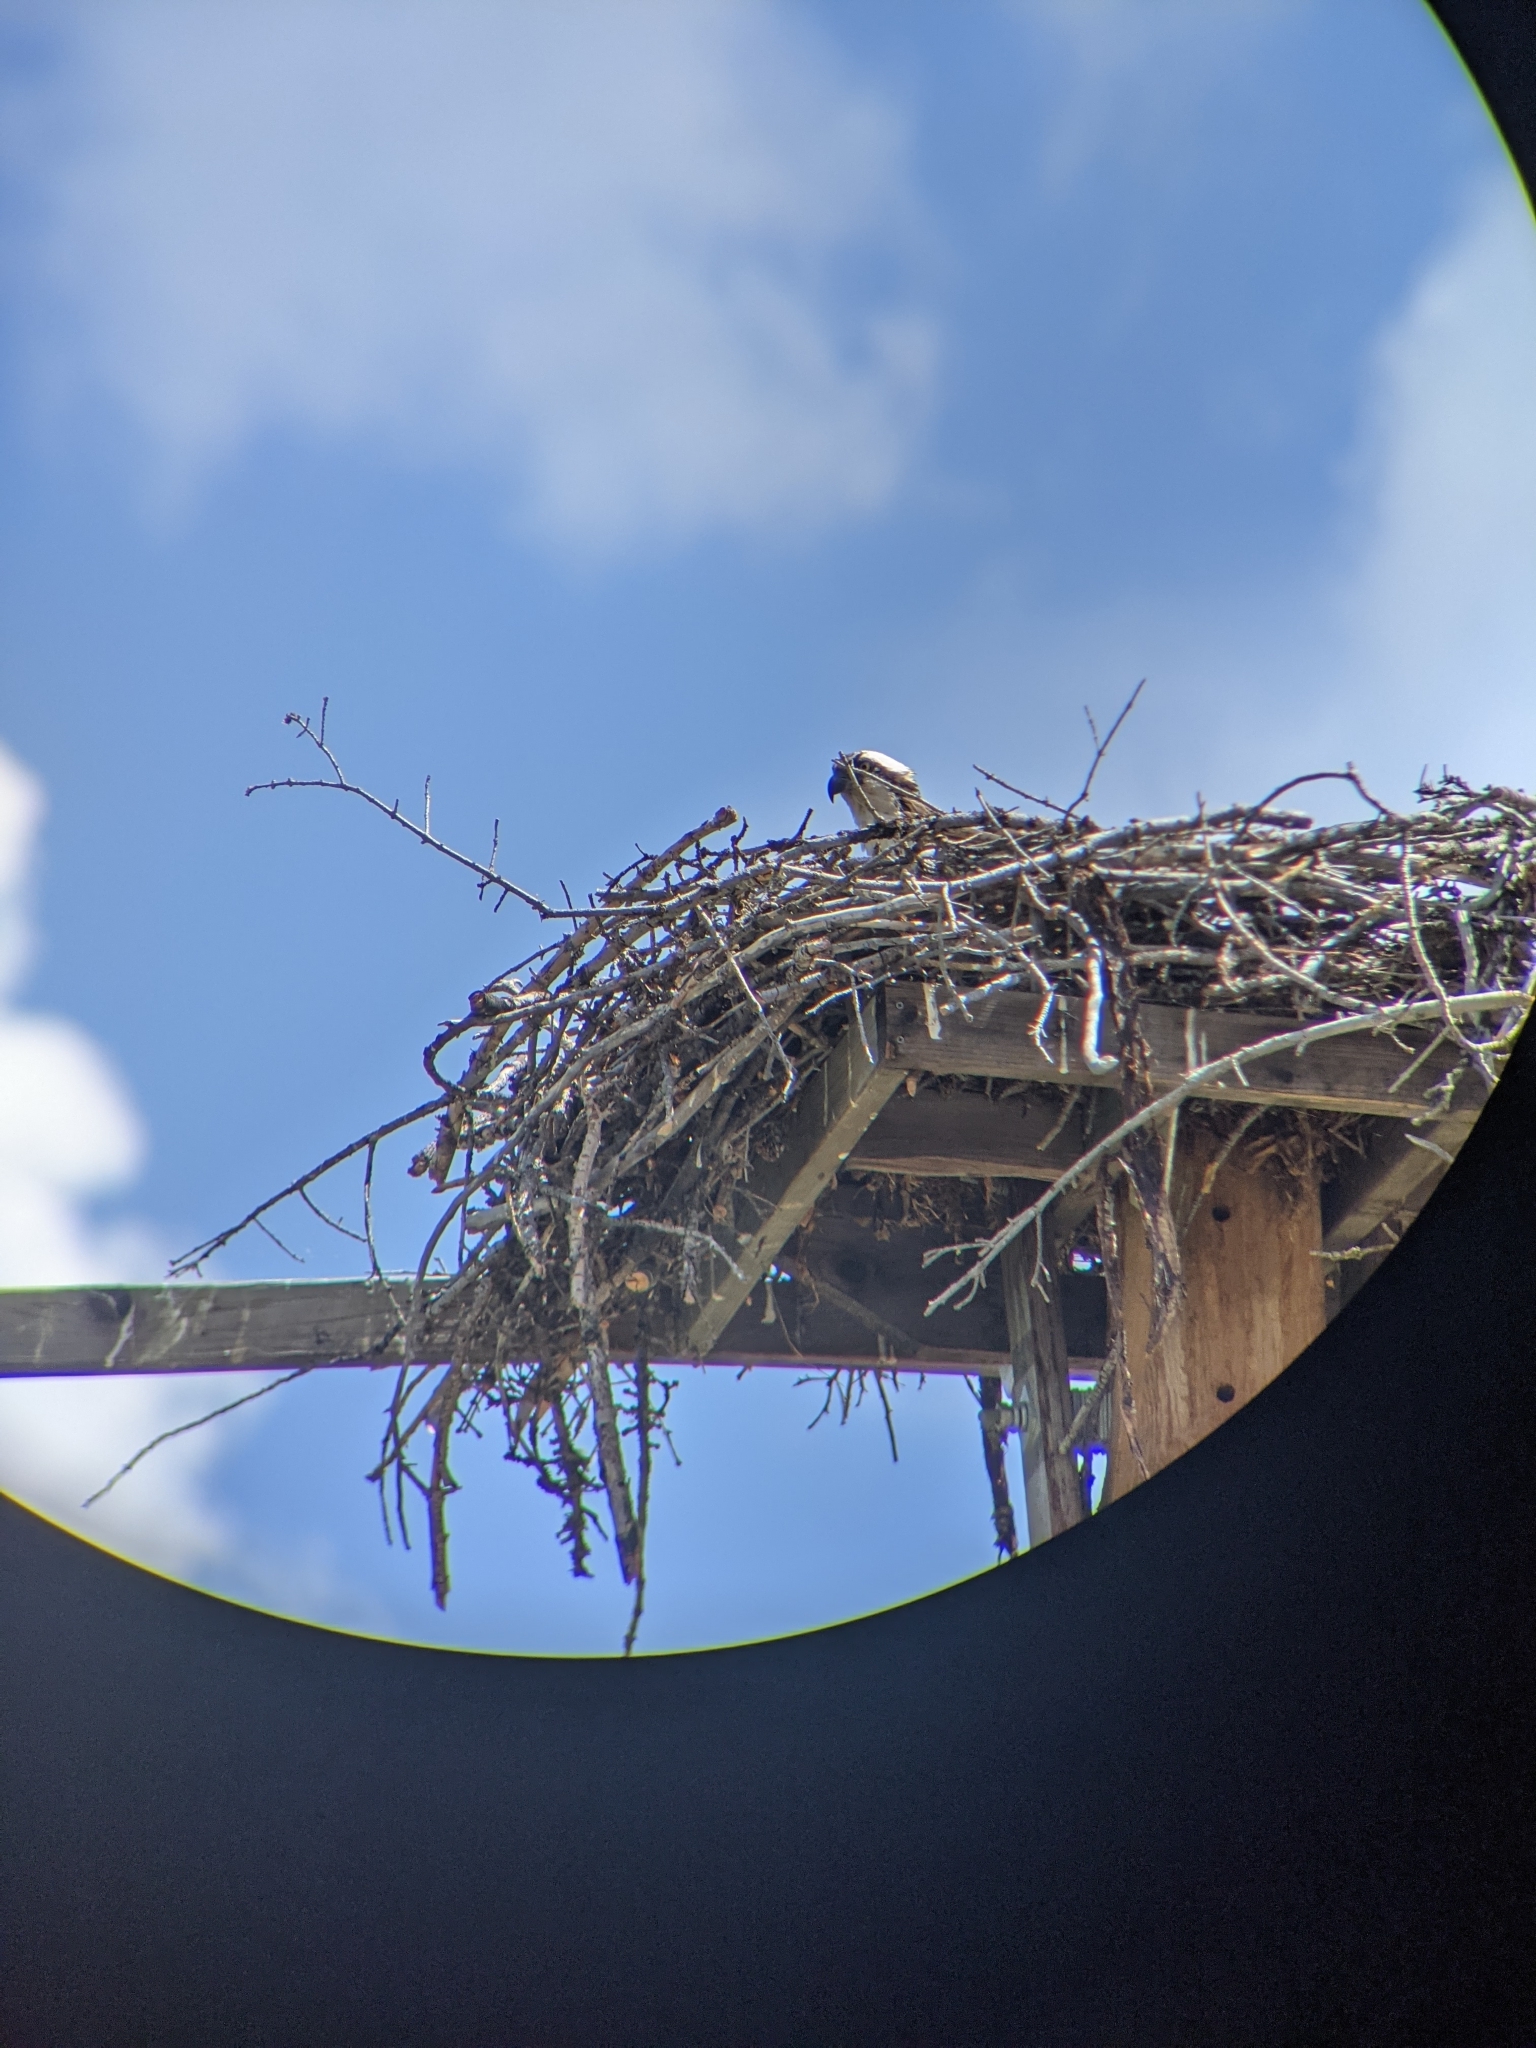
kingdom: Animalia
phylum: Chordata
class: Aves
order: Accipitriformes
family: Pandionidae
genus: Pandion
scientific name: Pandion haliaetus
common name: Osprey
